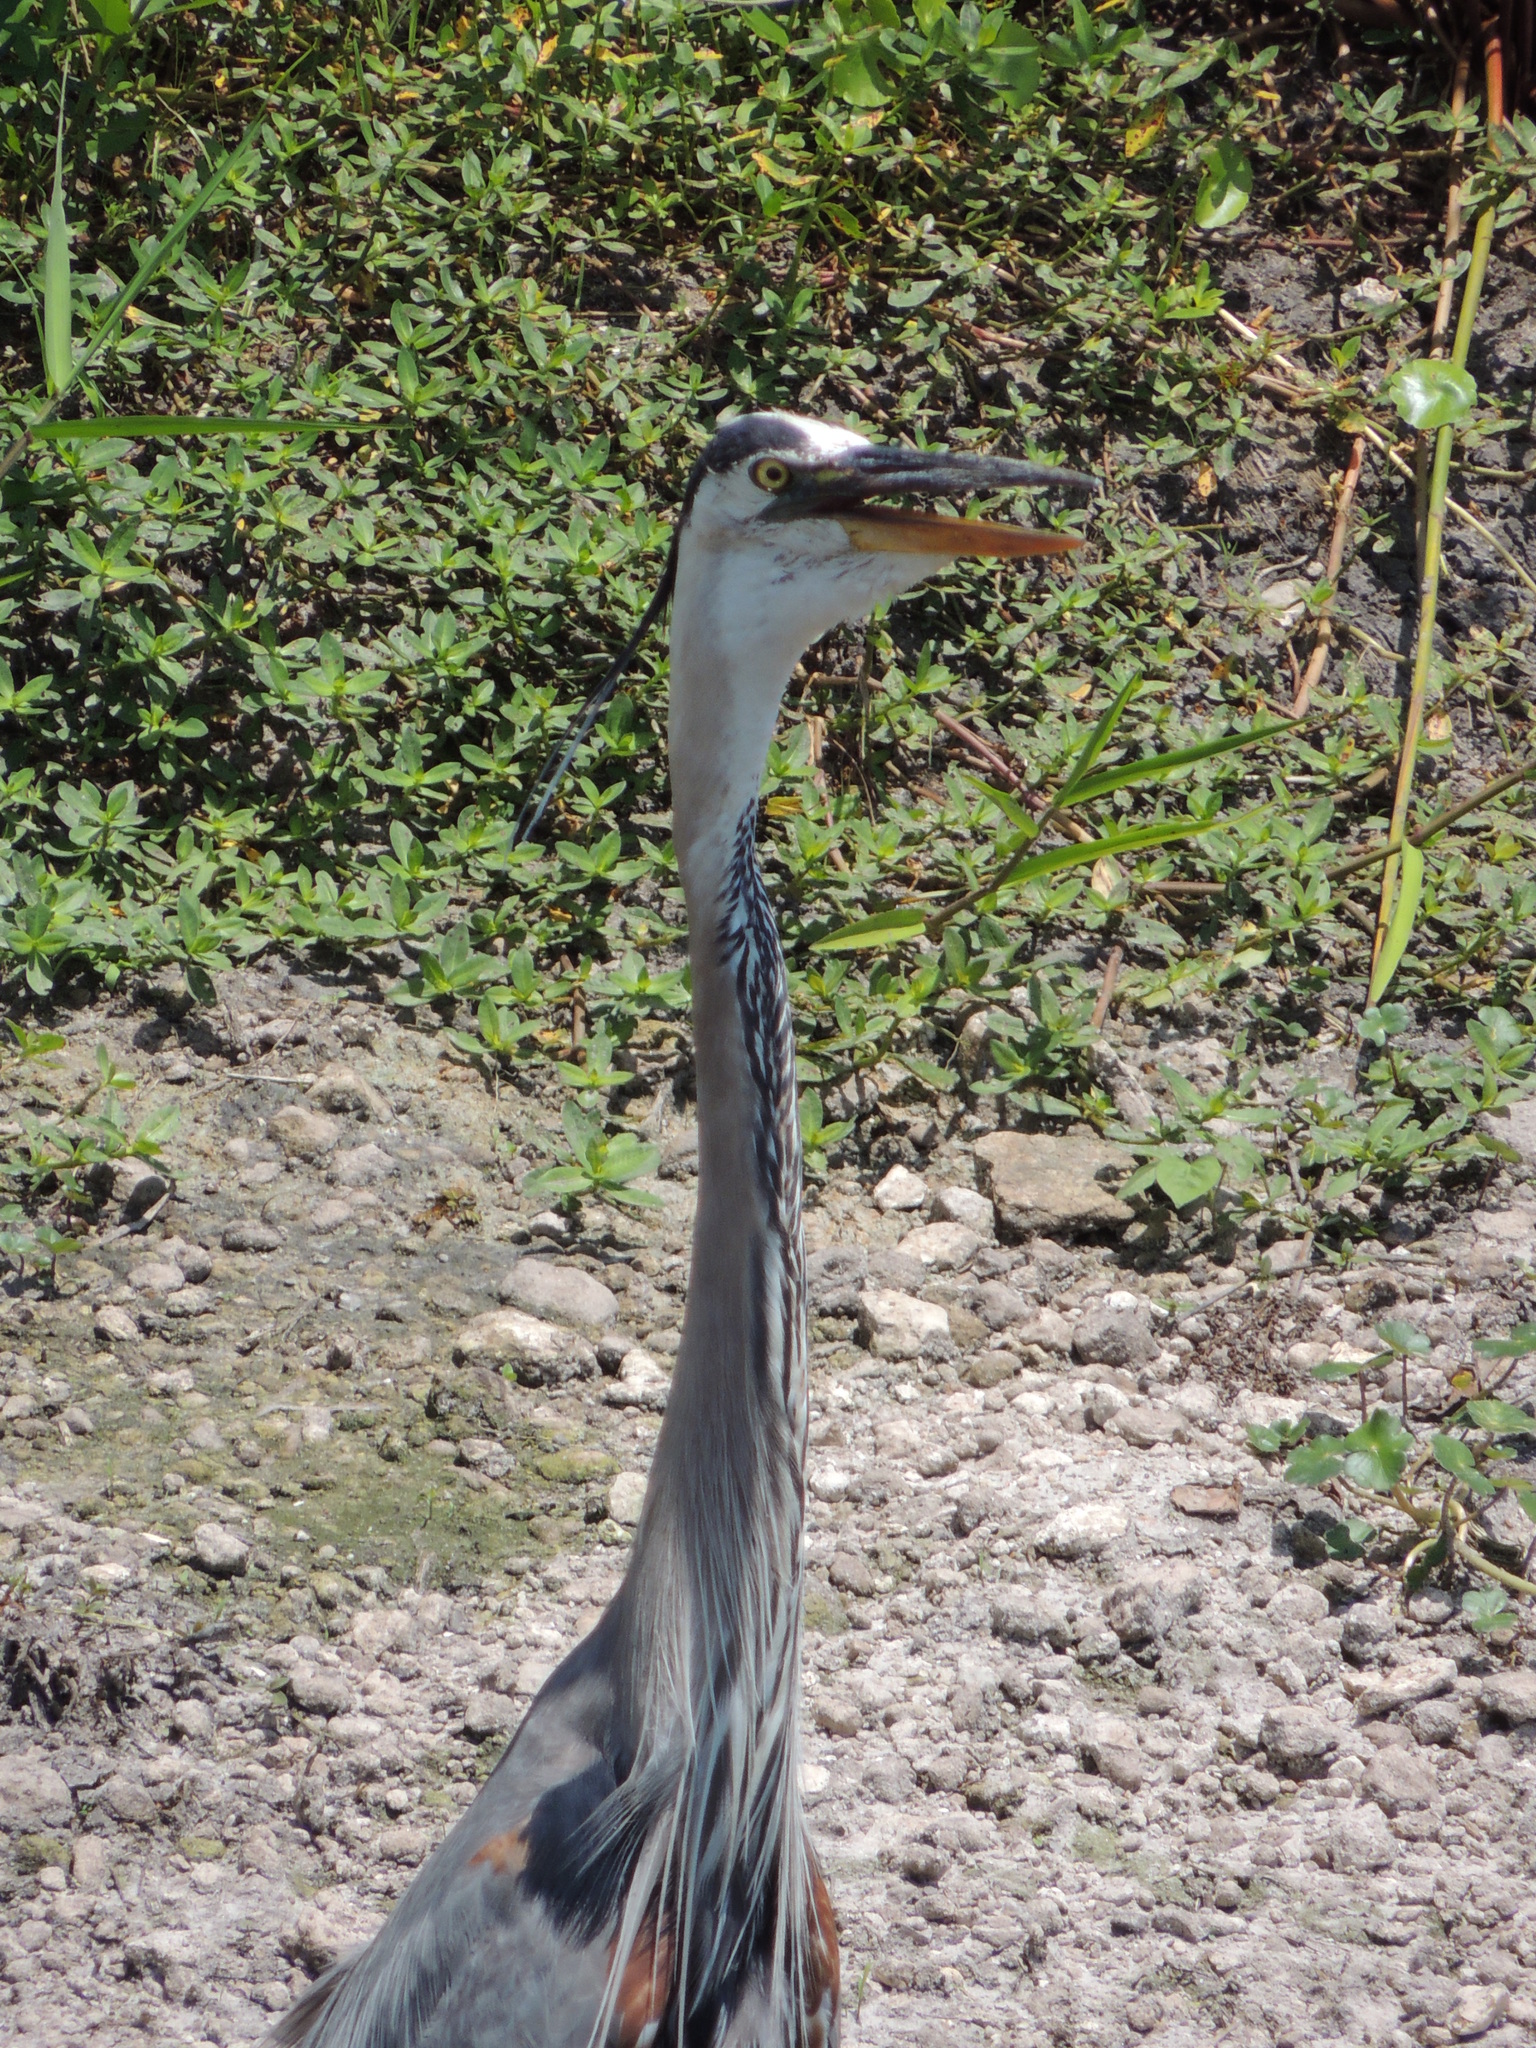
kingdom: Animalia
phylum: Chordata
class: Aves
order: Pelecaniformes
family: Ardeidae
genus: Ardea
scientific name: Ardea herodias
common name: Great blue heron
